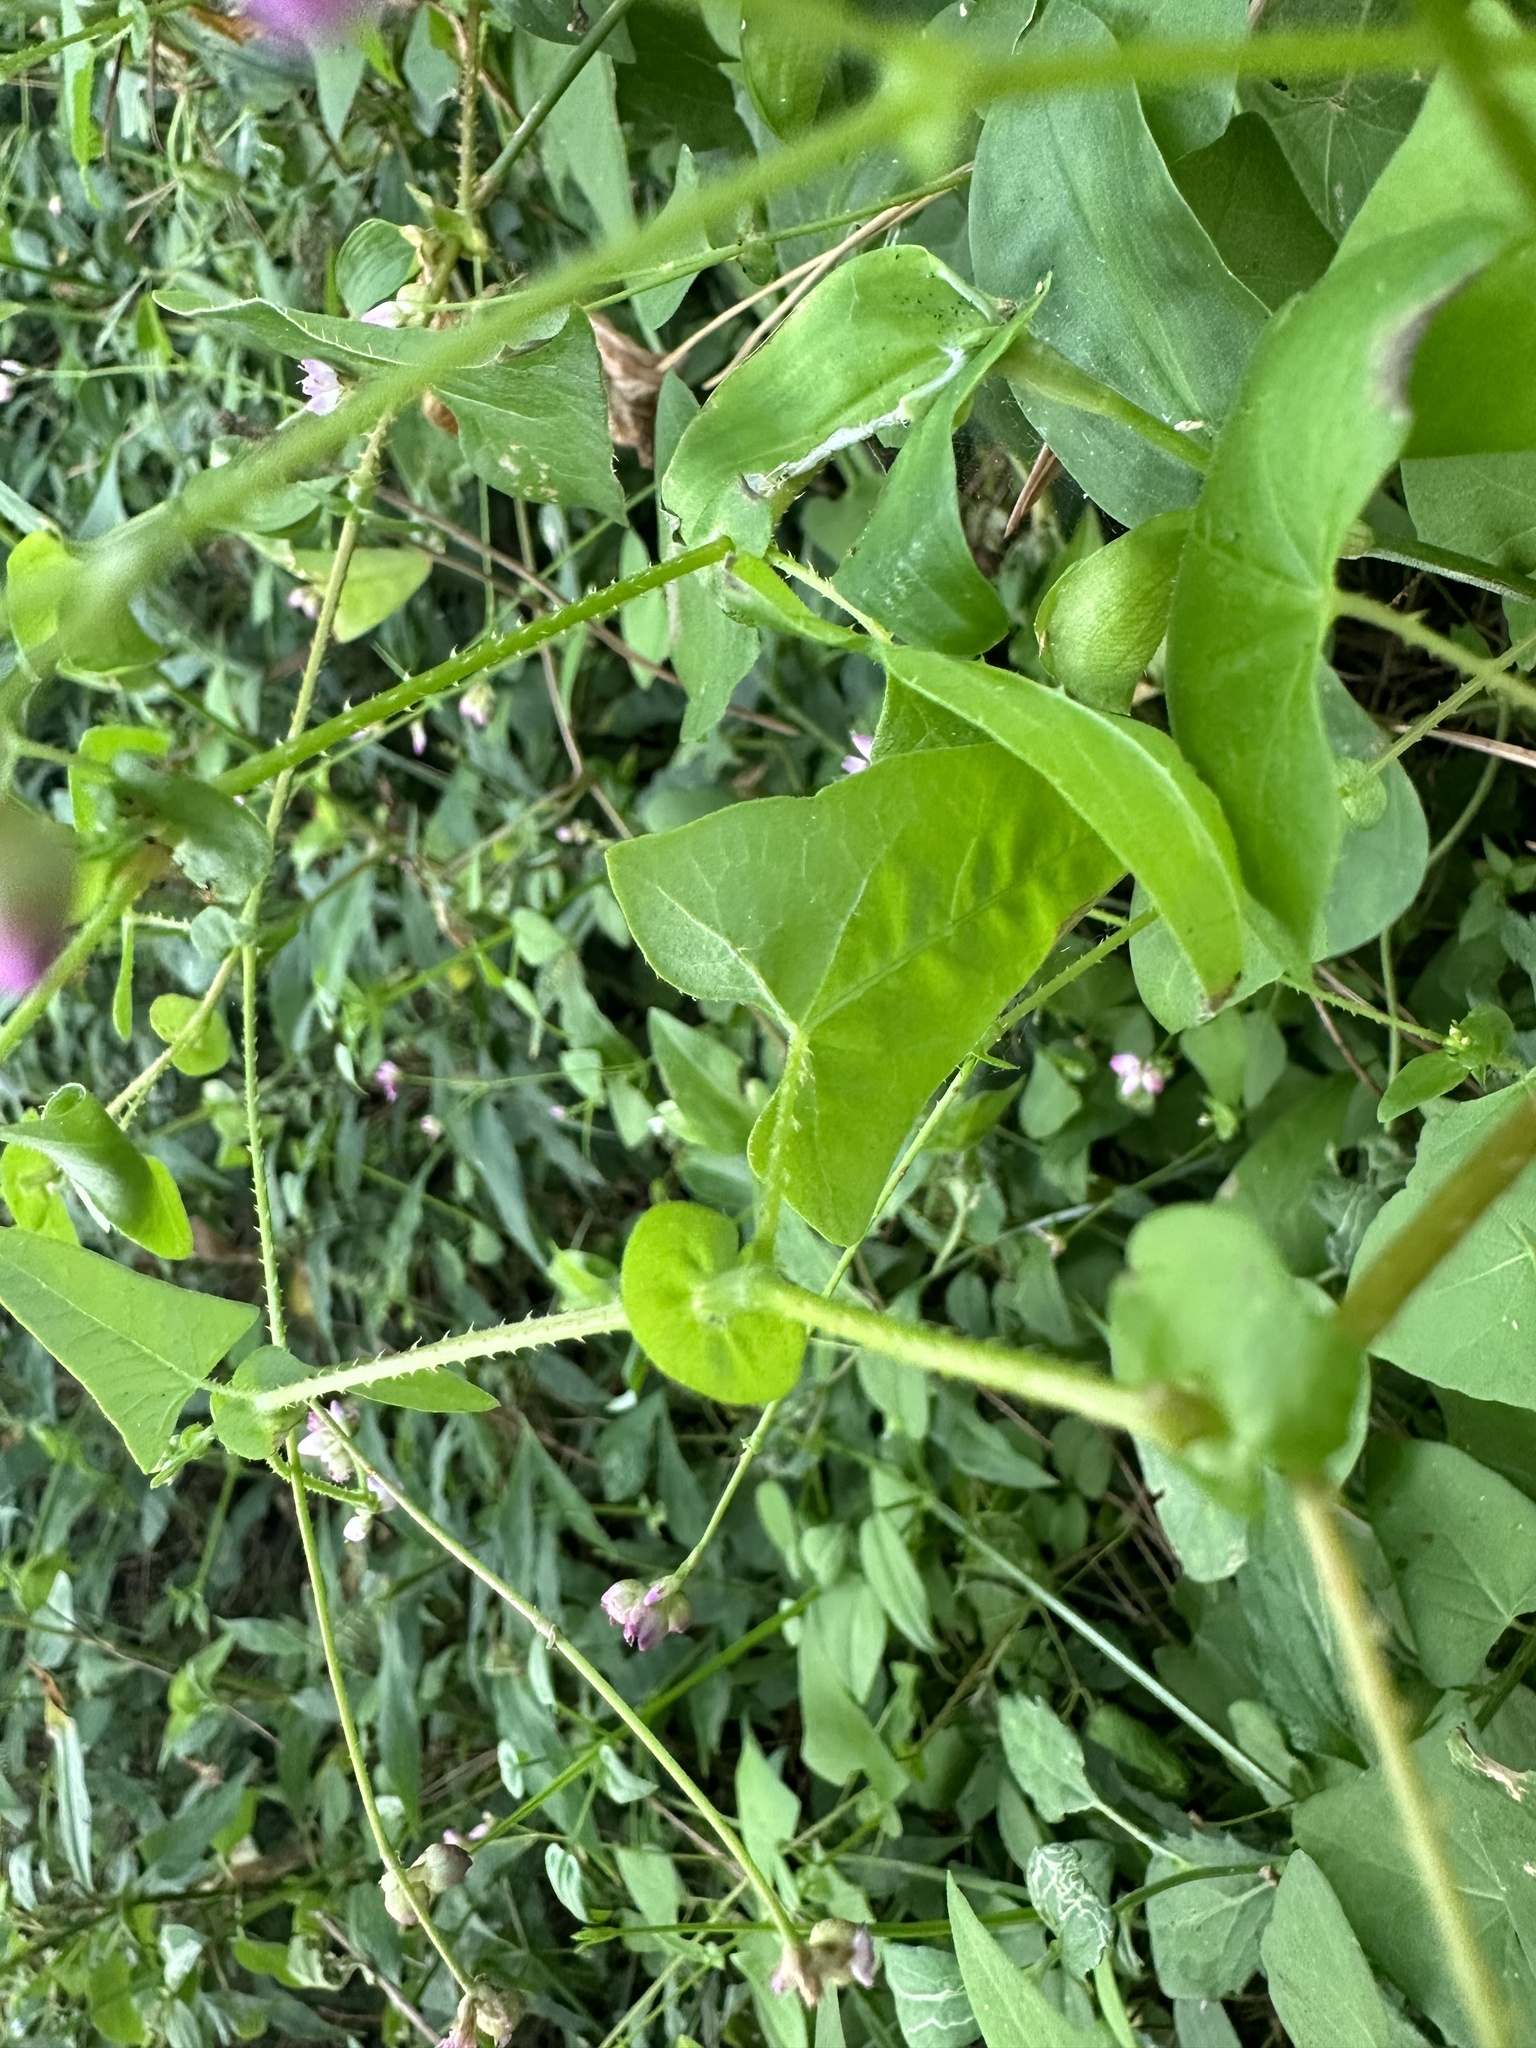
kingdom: Plantae
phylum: Tracheophyta
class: Magnoliopsida
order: Caryophyllales
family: Polygonaceae
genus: Persicaria
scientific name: Persicaria senticosa
